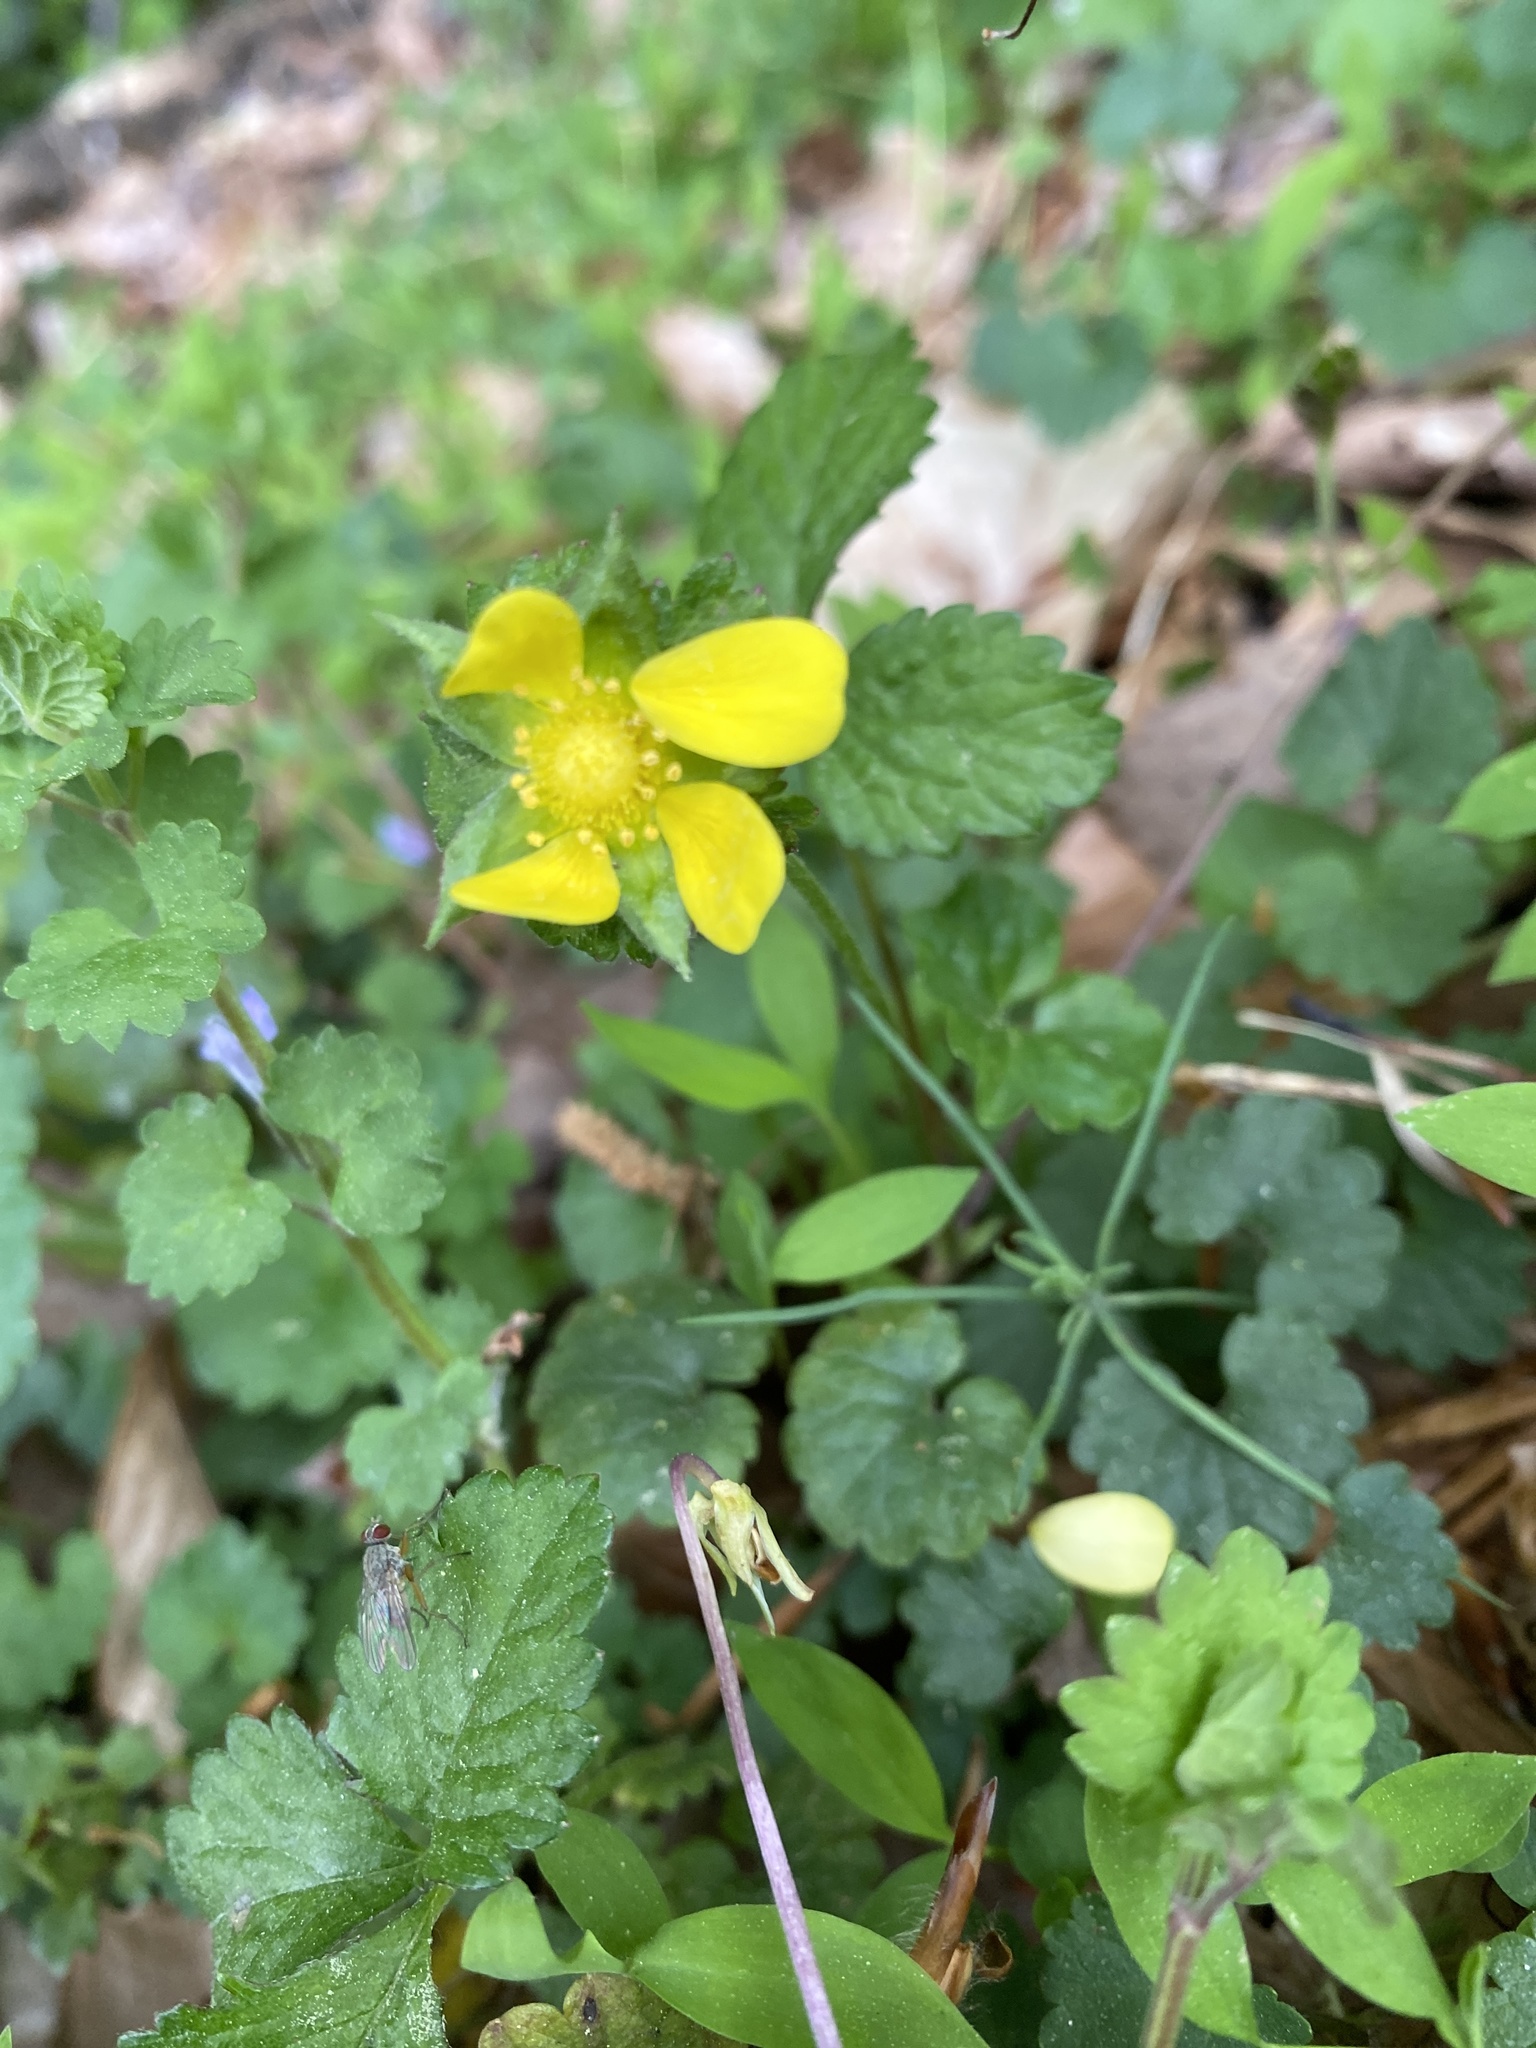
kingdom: Plantae
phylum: Tracheophyta
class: Magnoliopsida
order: Rosales
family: Rosaceae
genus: Potentilla
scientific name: Potentilla indica
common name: Yellow-flowered strawberry
